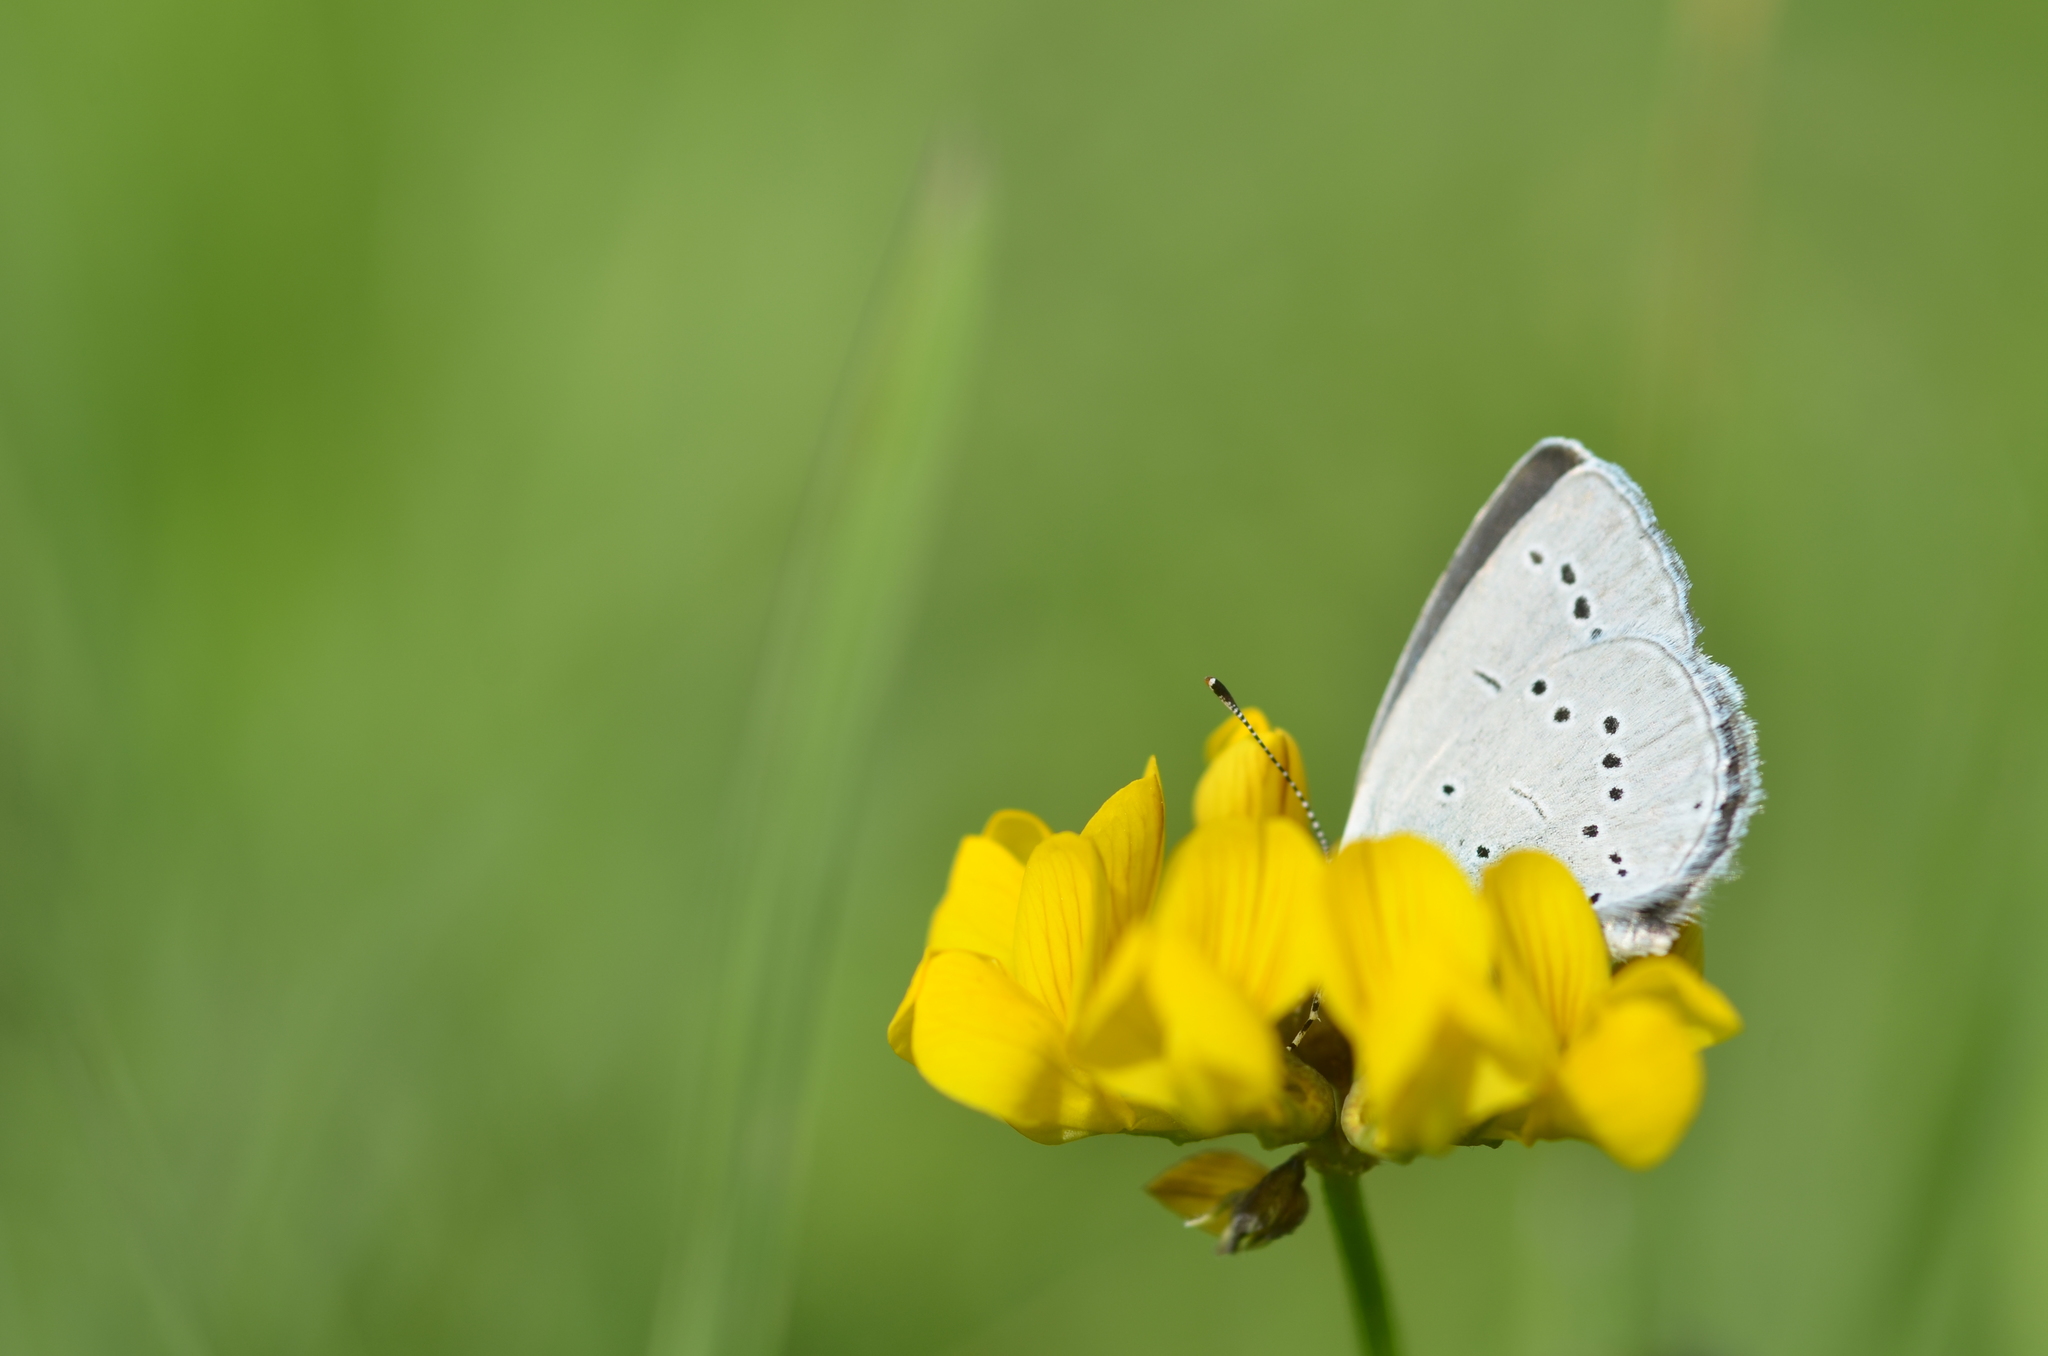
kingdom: Animalia
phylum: Arthropoda
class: Insecta
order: Lepidoptera
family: Lycaenidae
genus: Cupido
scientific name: Cupido minimus
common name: Small blue
